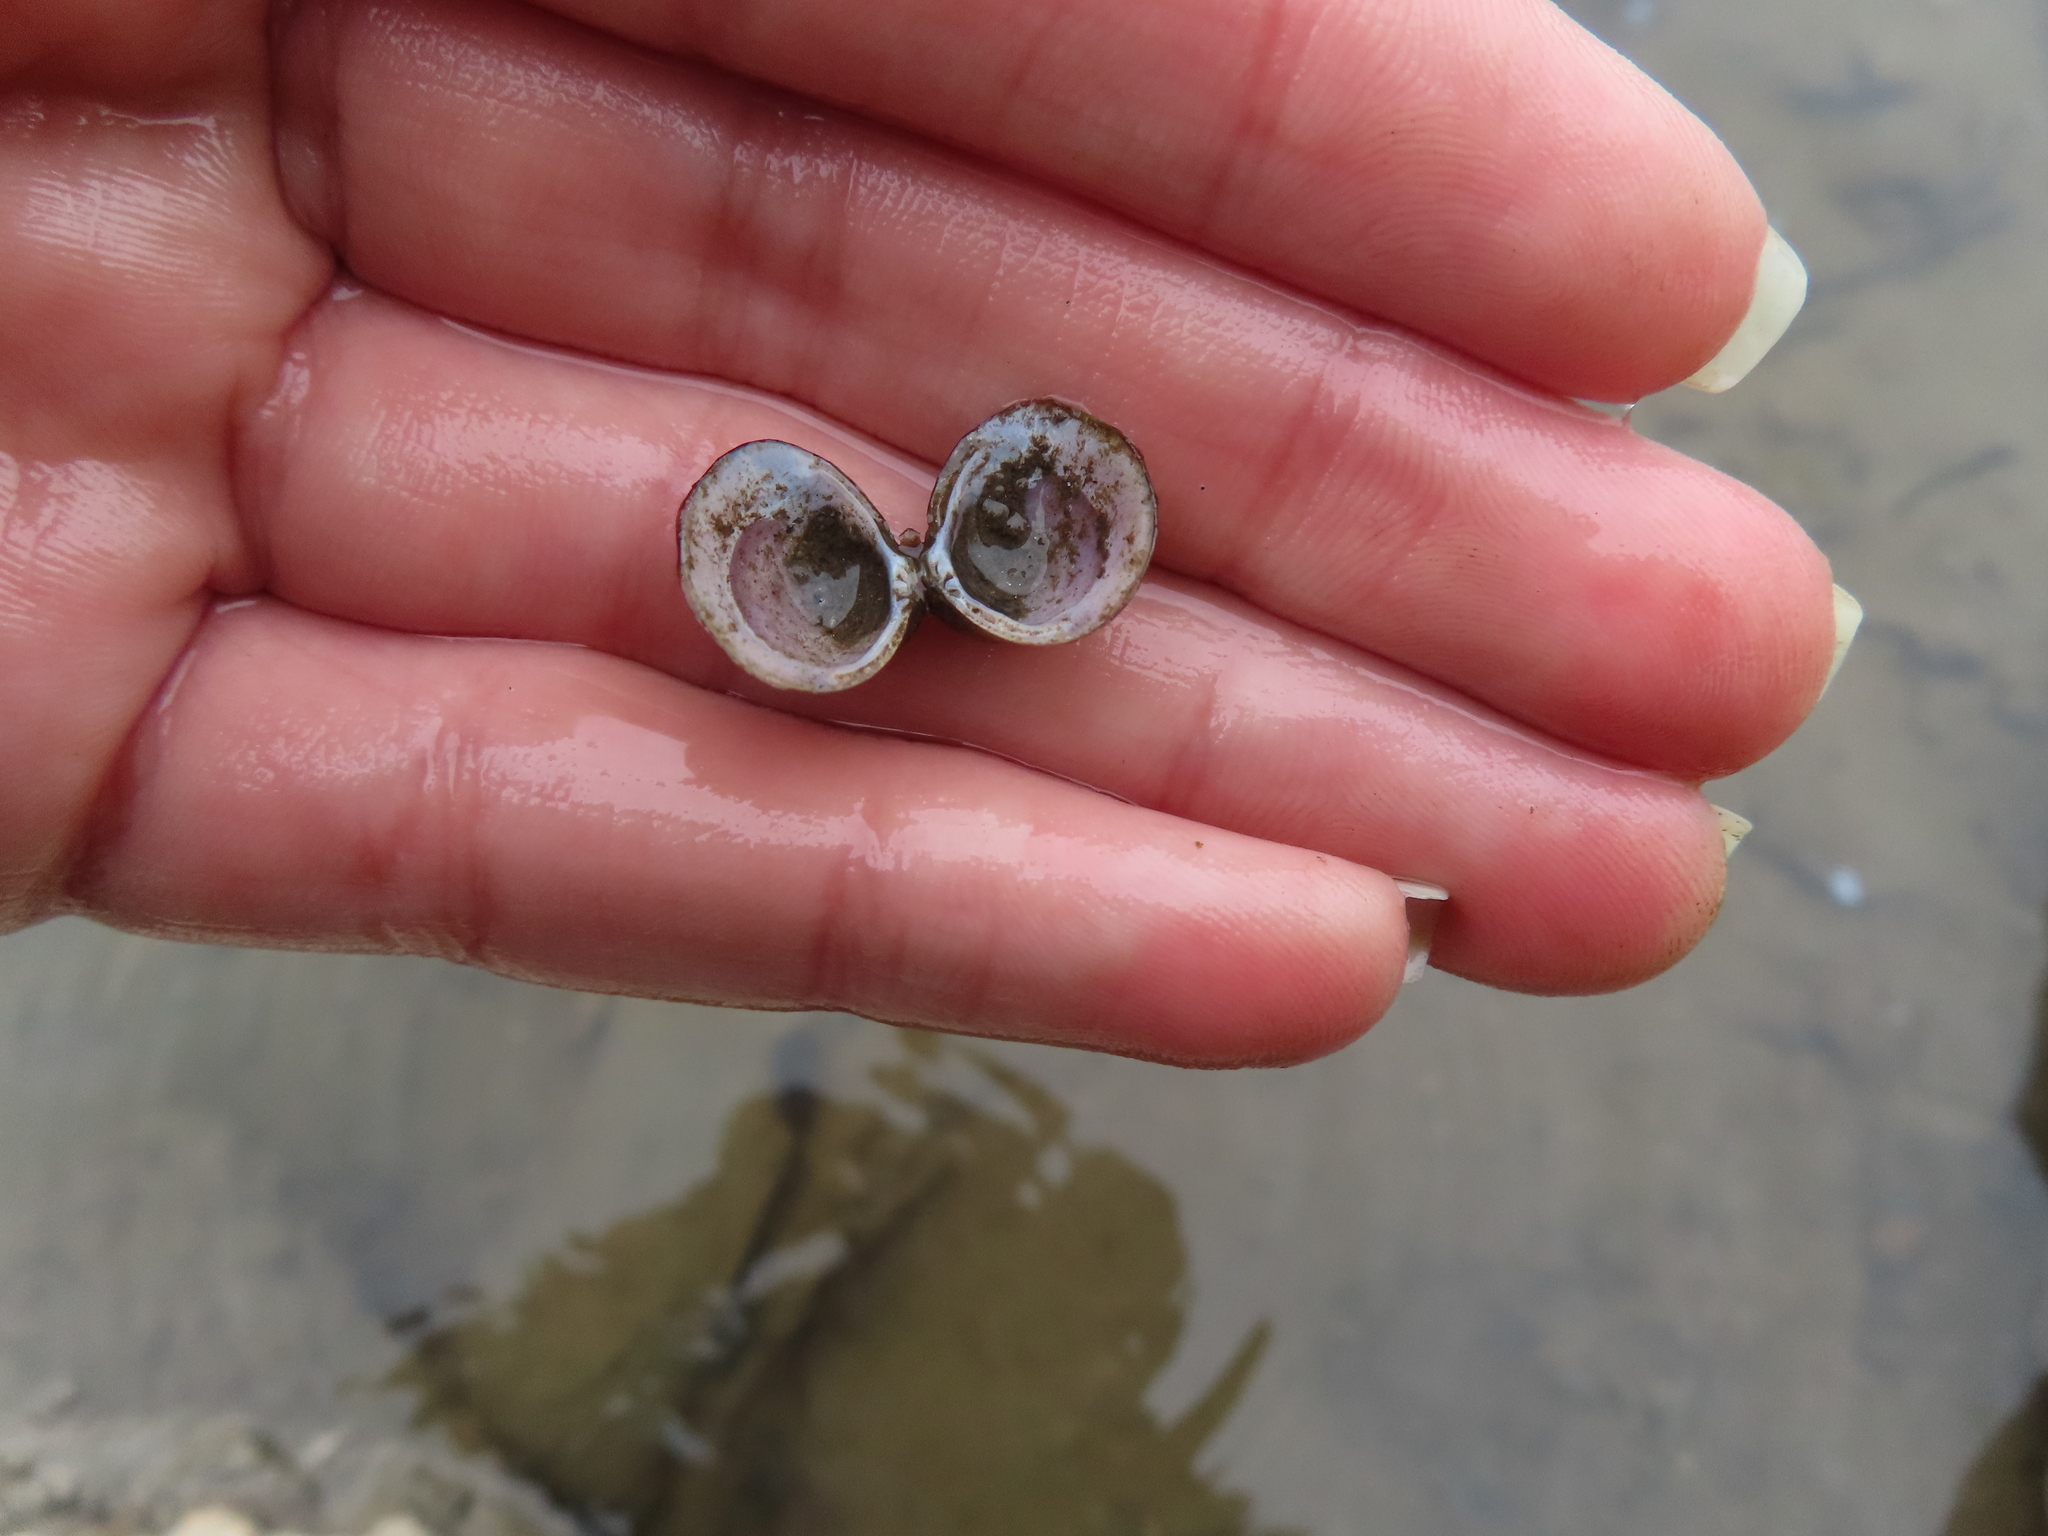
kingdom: Animalia
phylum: Mollusca
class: Bivalvia
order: Venerida
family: Cyrenidae
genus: Corbicula
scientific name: Corbicula fluminea
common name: Asian clam
